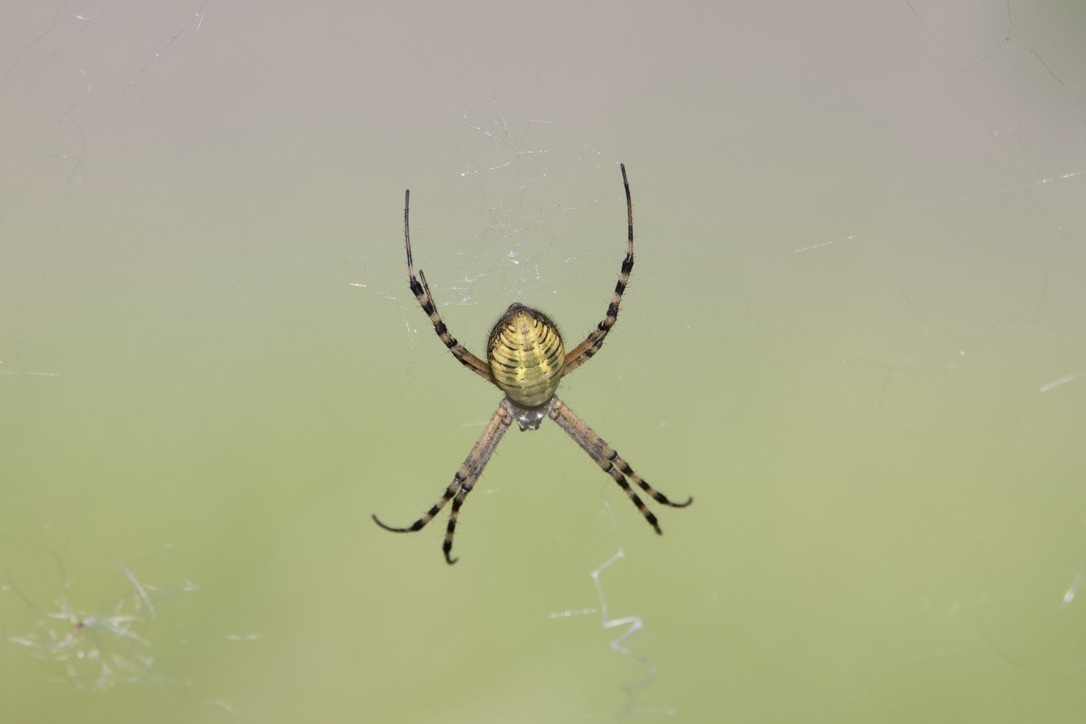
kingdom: Animalia
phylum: Arthropoda
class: Arachnida
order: Araneae
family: Araneidae
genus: Argiope
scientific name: Argiope trifasciata
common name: Banded garden spider
